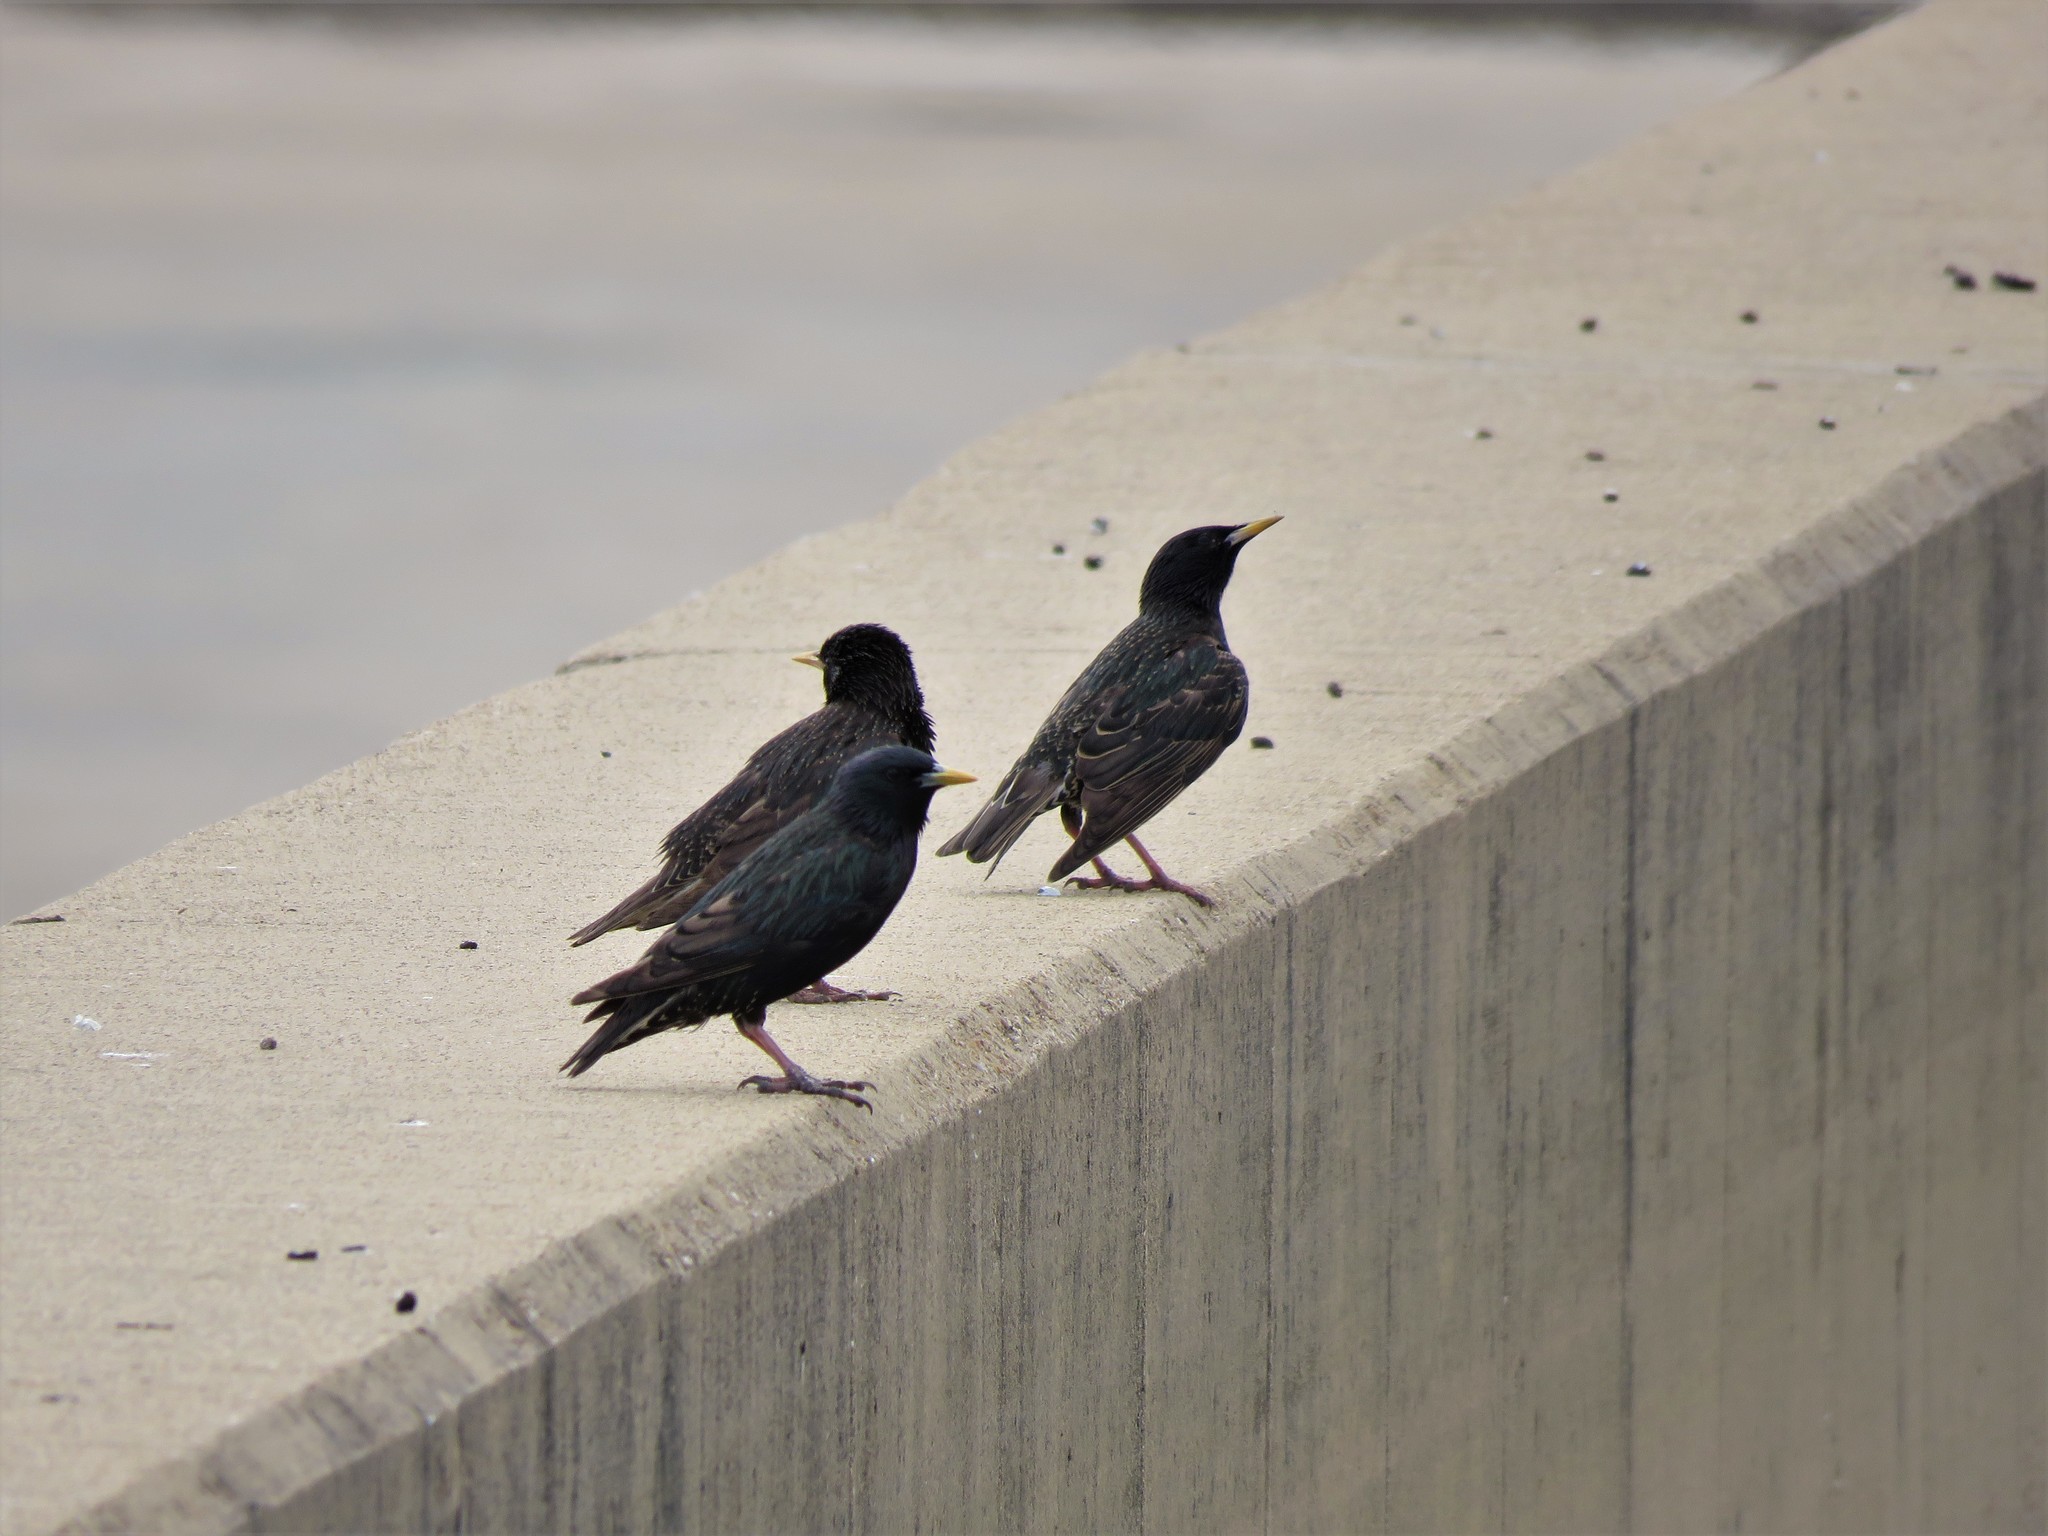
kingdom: Animalia
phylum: Chordata
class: Aves
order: Passeriformes
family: Sturnidae
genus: Sturnus
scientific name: Sturnus vulgaris
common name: Common starling
